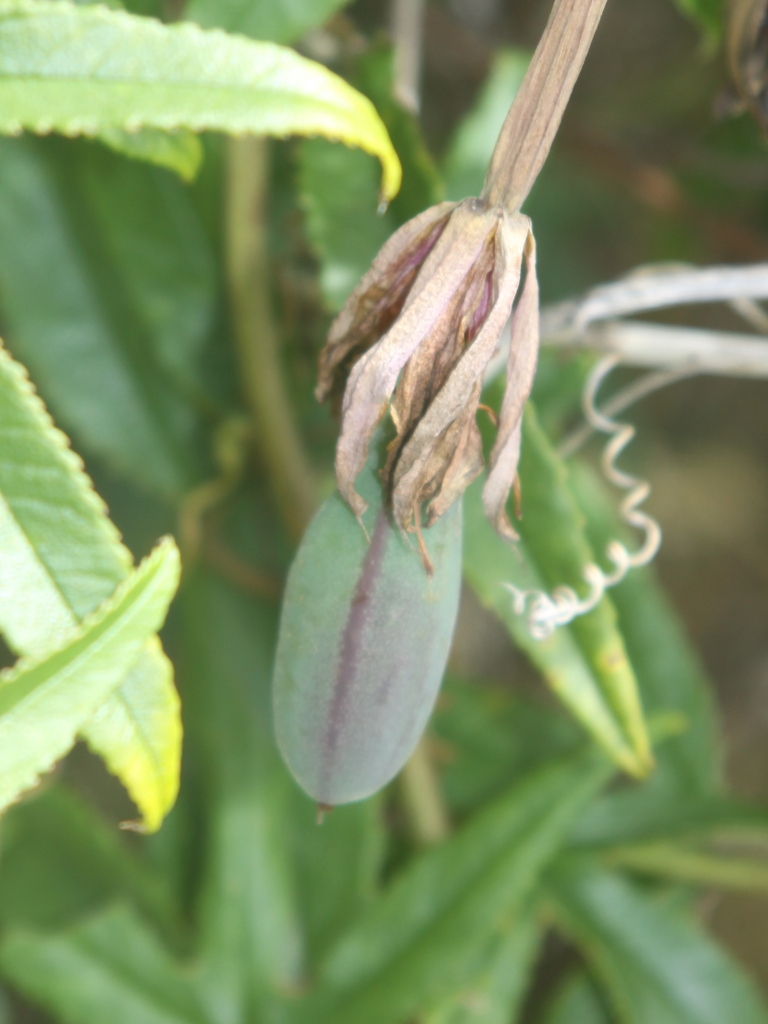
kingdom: Plantae
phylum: Tracheophyta
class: Magnoliopsida
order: Malpighiales
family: Passifloraceae
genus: Passiflora
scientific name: Passiflora tripartita
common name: Banana poka
